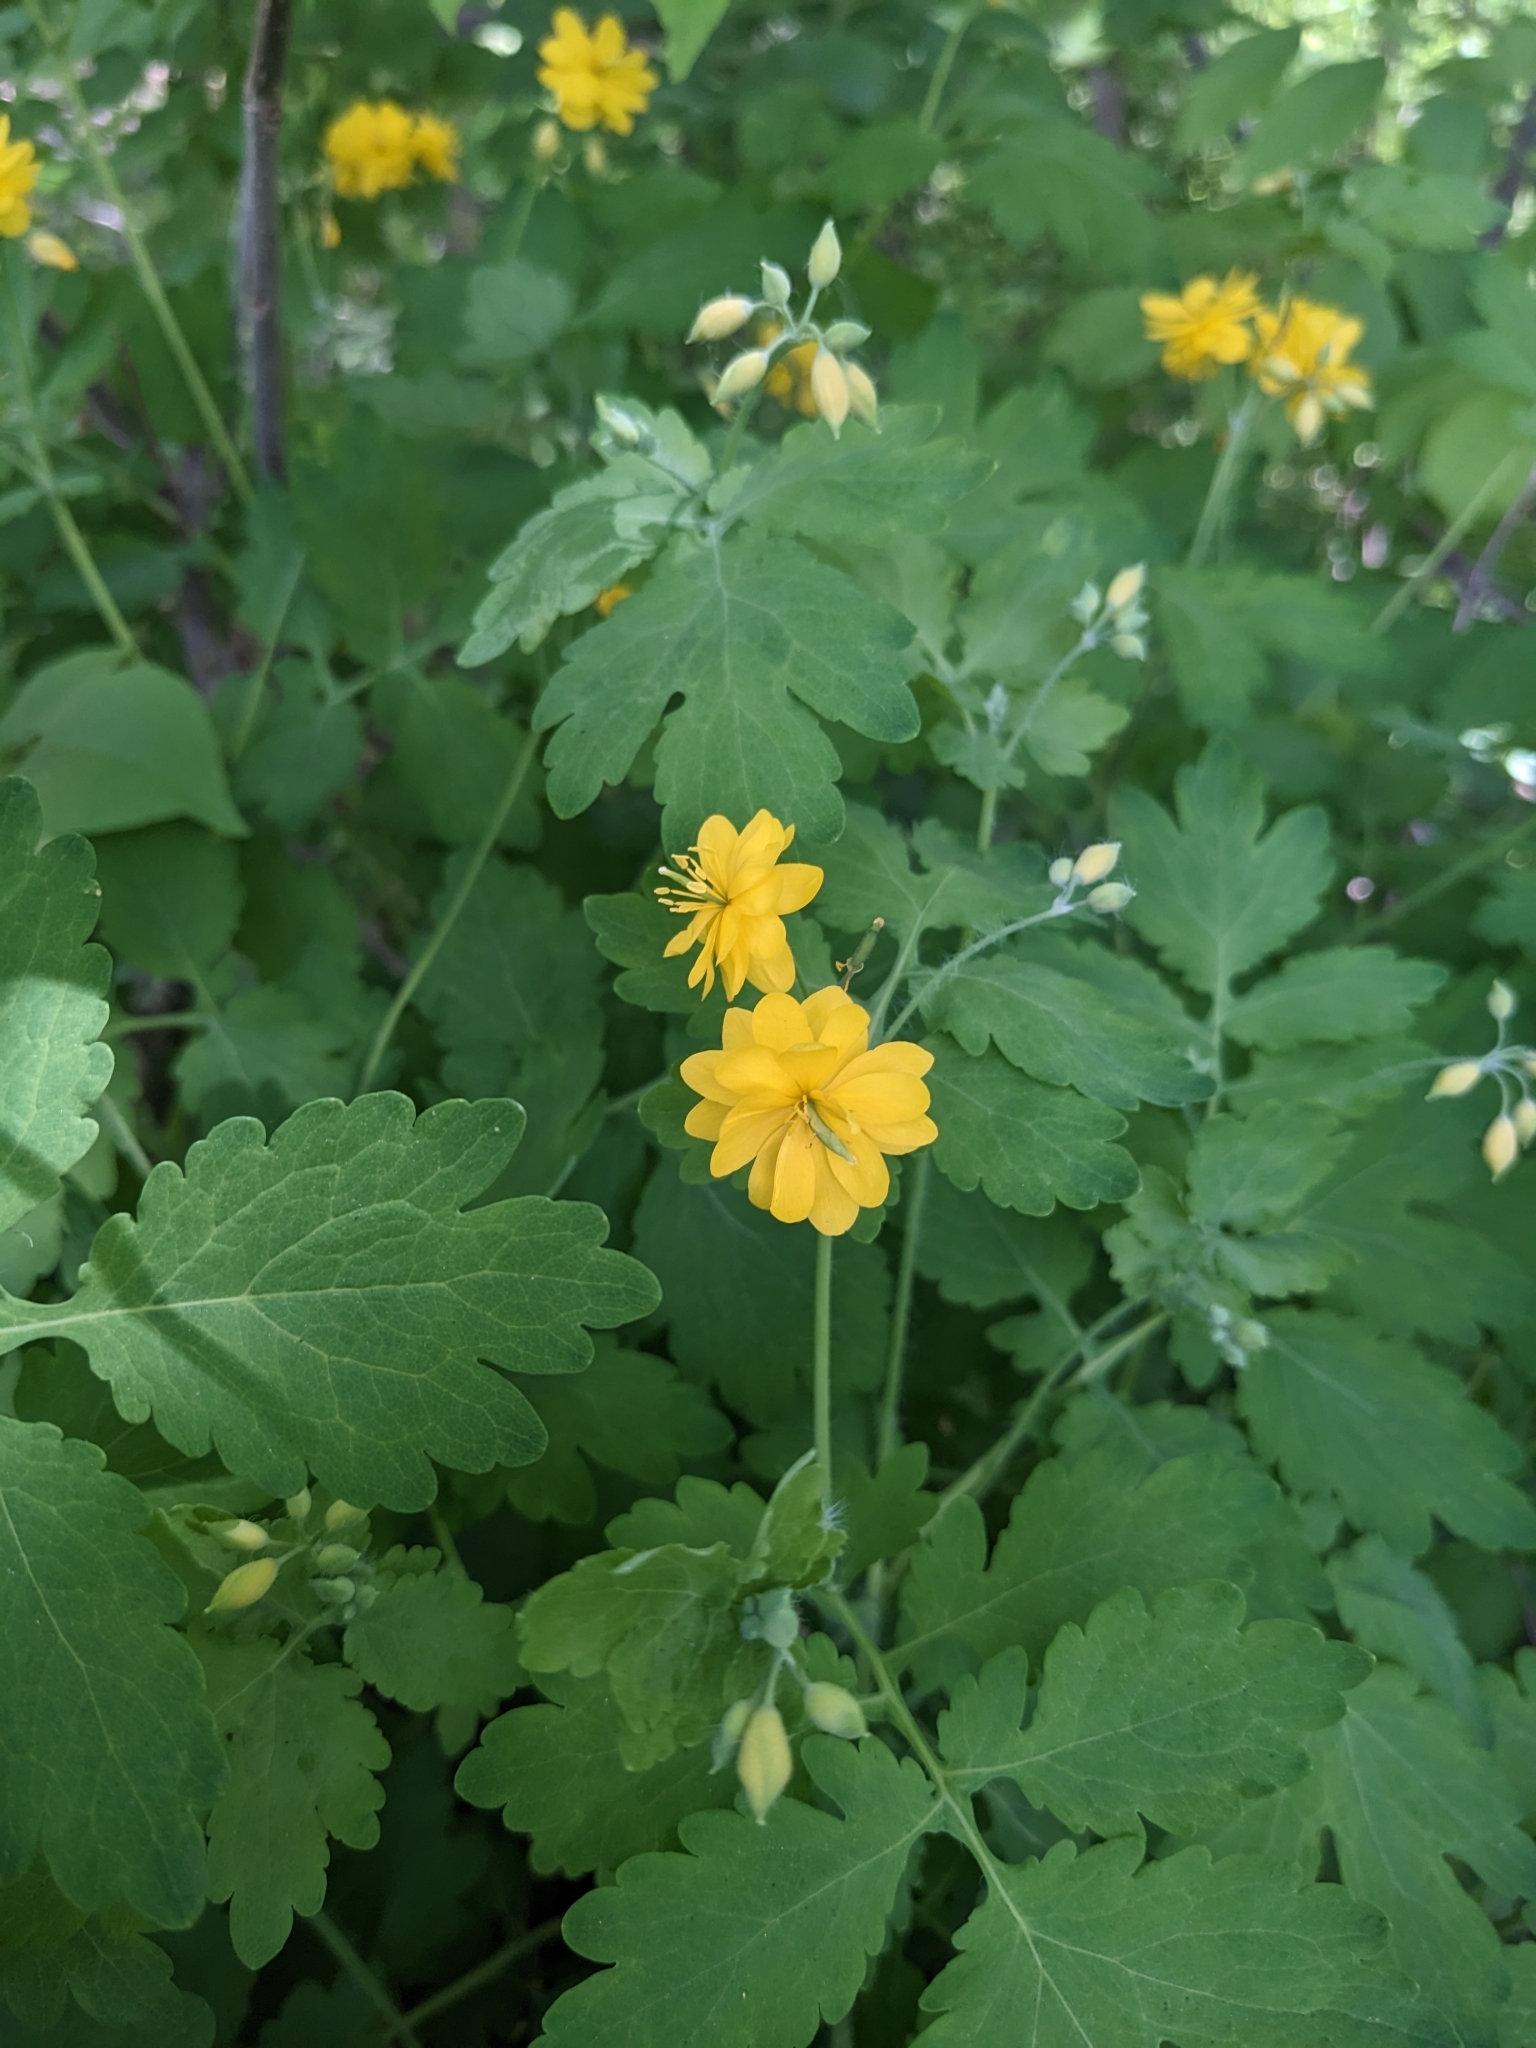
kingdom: Plantae
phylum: Tracheophyta
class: Magnoliopsida
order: Ranunculales
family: Papaveraceae
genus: Chelidonium
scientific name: Chelidonium majus
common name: Greater celandine
